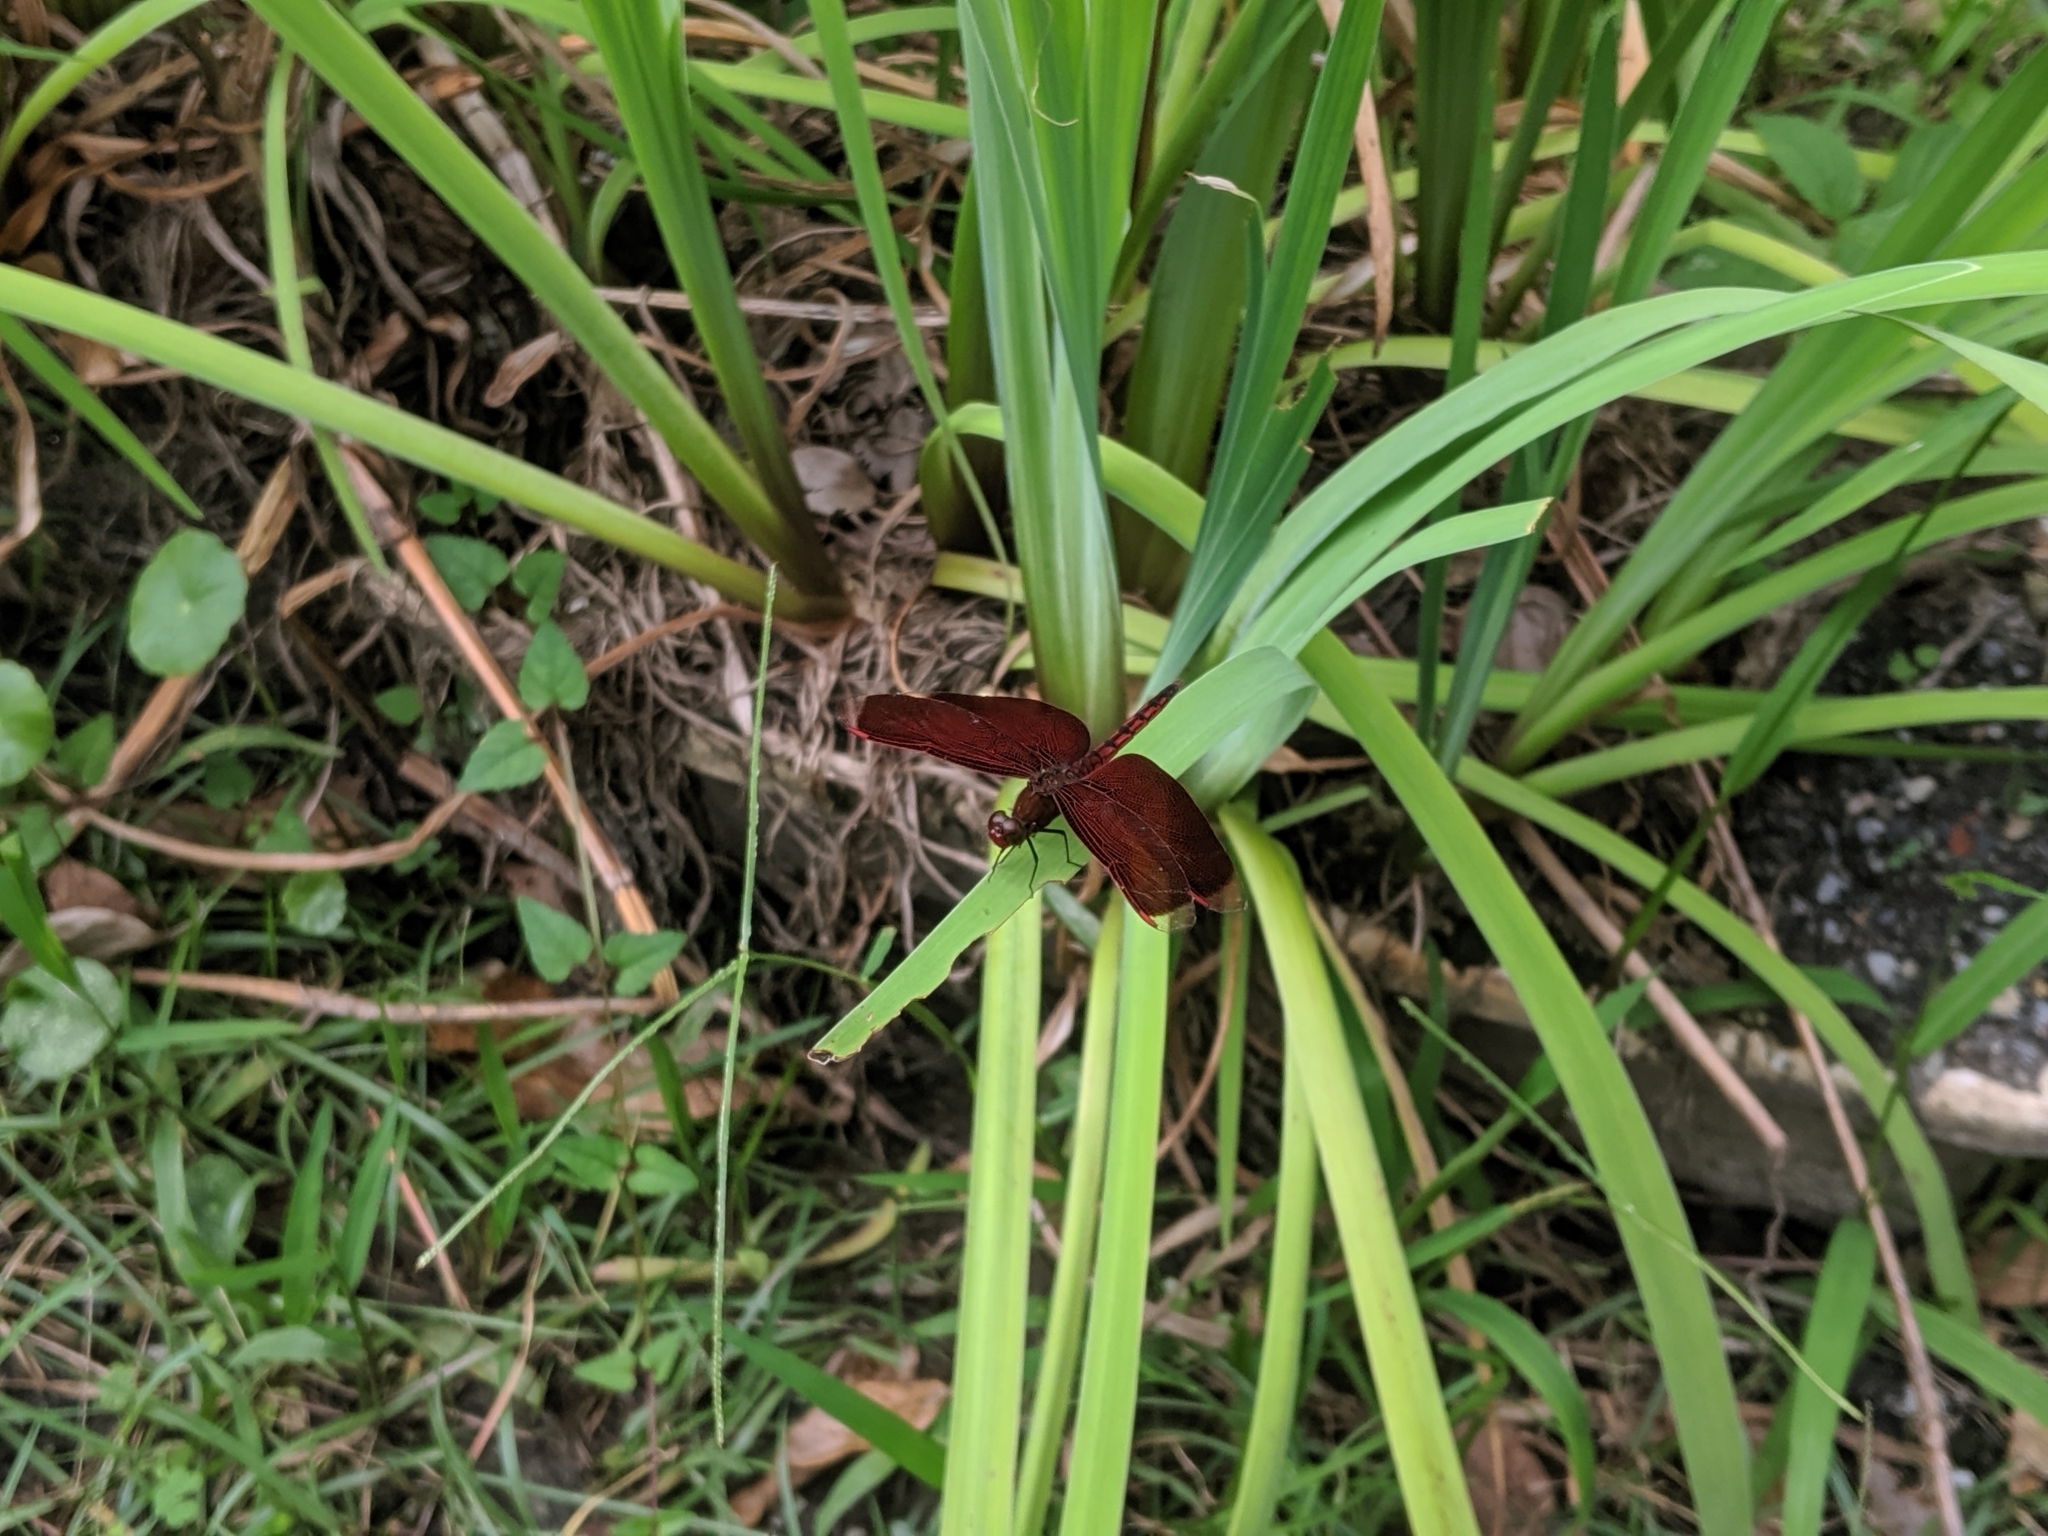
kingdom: Animalia
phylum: Arthropoda
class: Insecta
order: Odonata
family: Libellulidae
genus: Neurothemis
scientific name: Neurothemis taiwanensis
